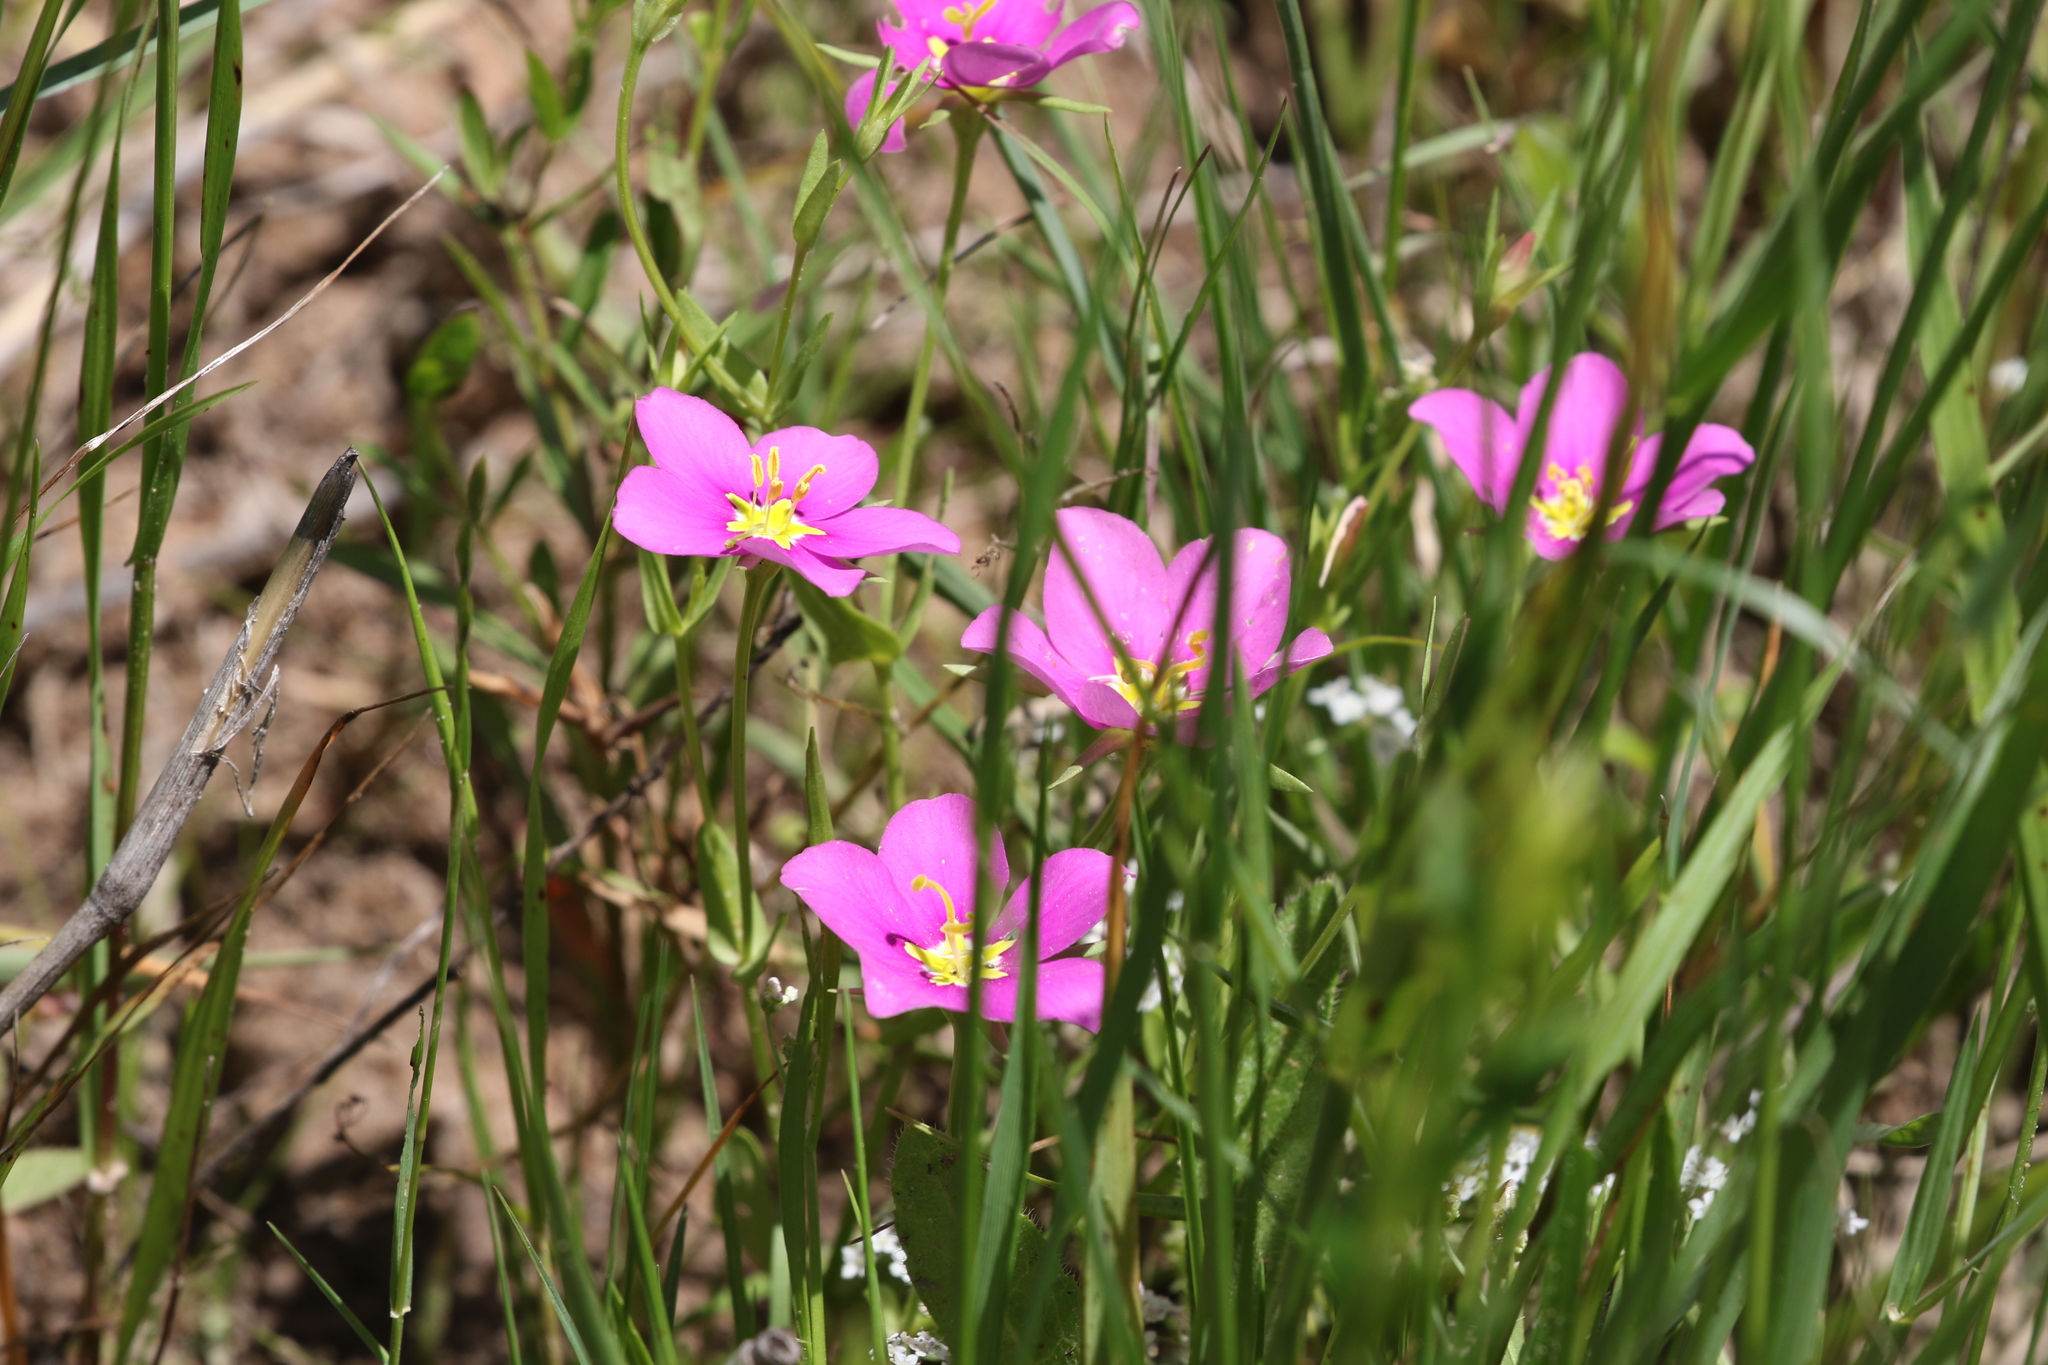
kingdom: Plantae
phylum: Tracheophyta
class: Magnoliopsida
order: Gentianales
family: Gentianaceae
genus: Sabatia
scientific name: Sabatia campestris
